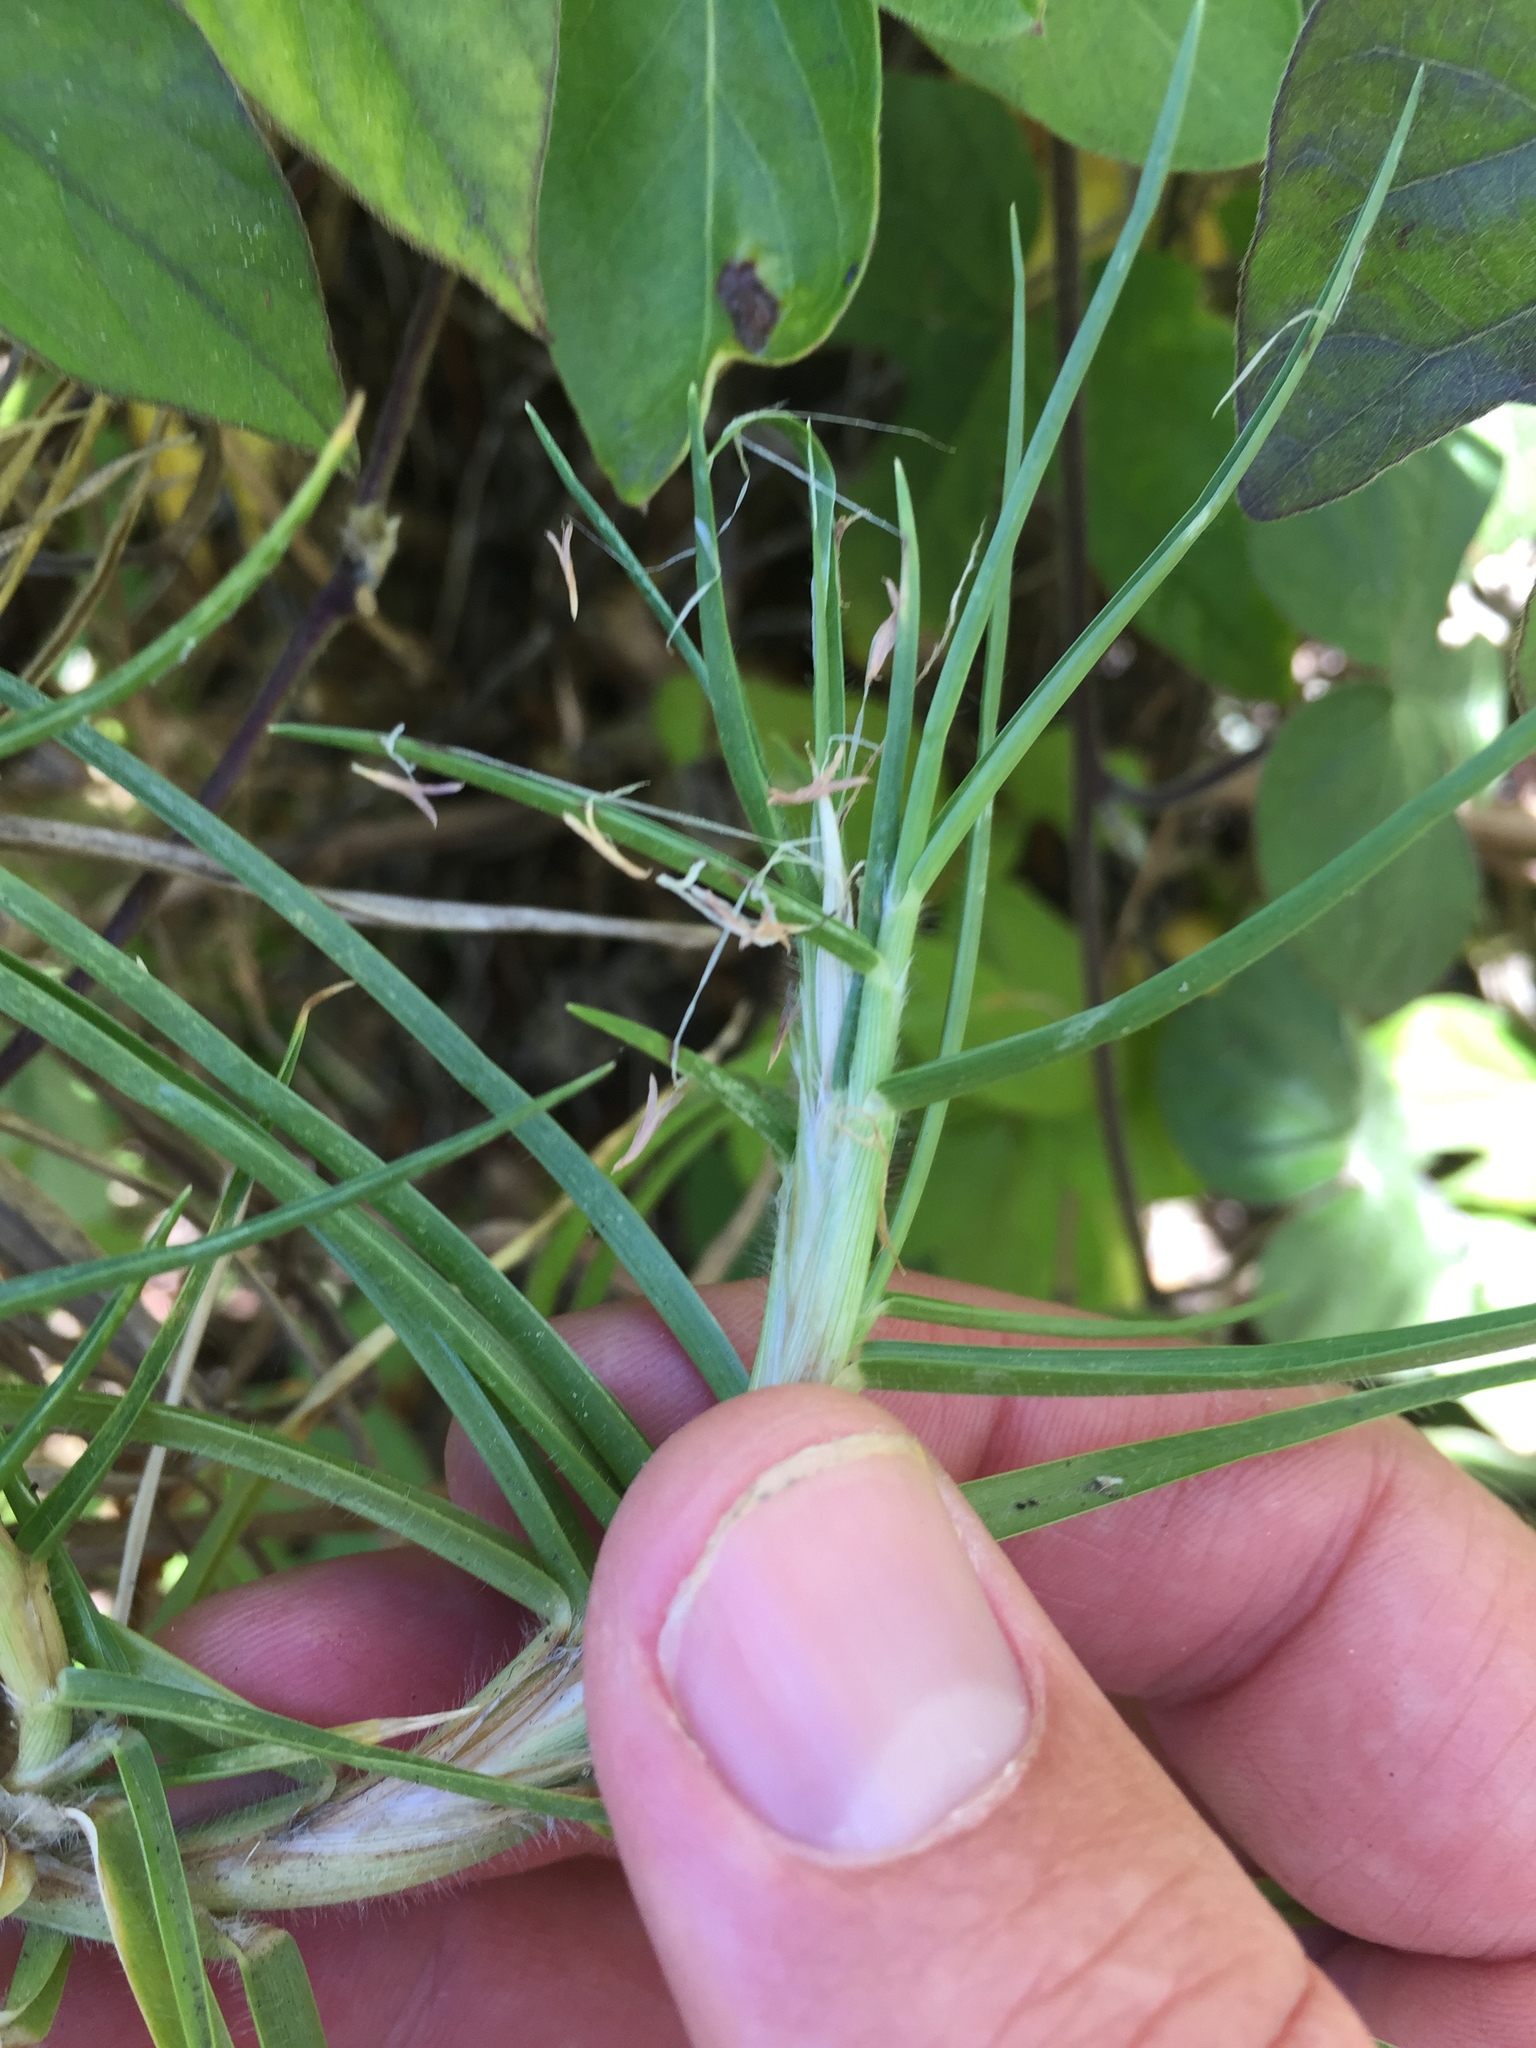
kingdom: Plantae
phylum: Tracheophyta
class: Liliopsida
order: Poales
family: Poaceae
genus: Cenchrus
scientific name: Cenchrus clandestinus
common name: Kikuyugrass
